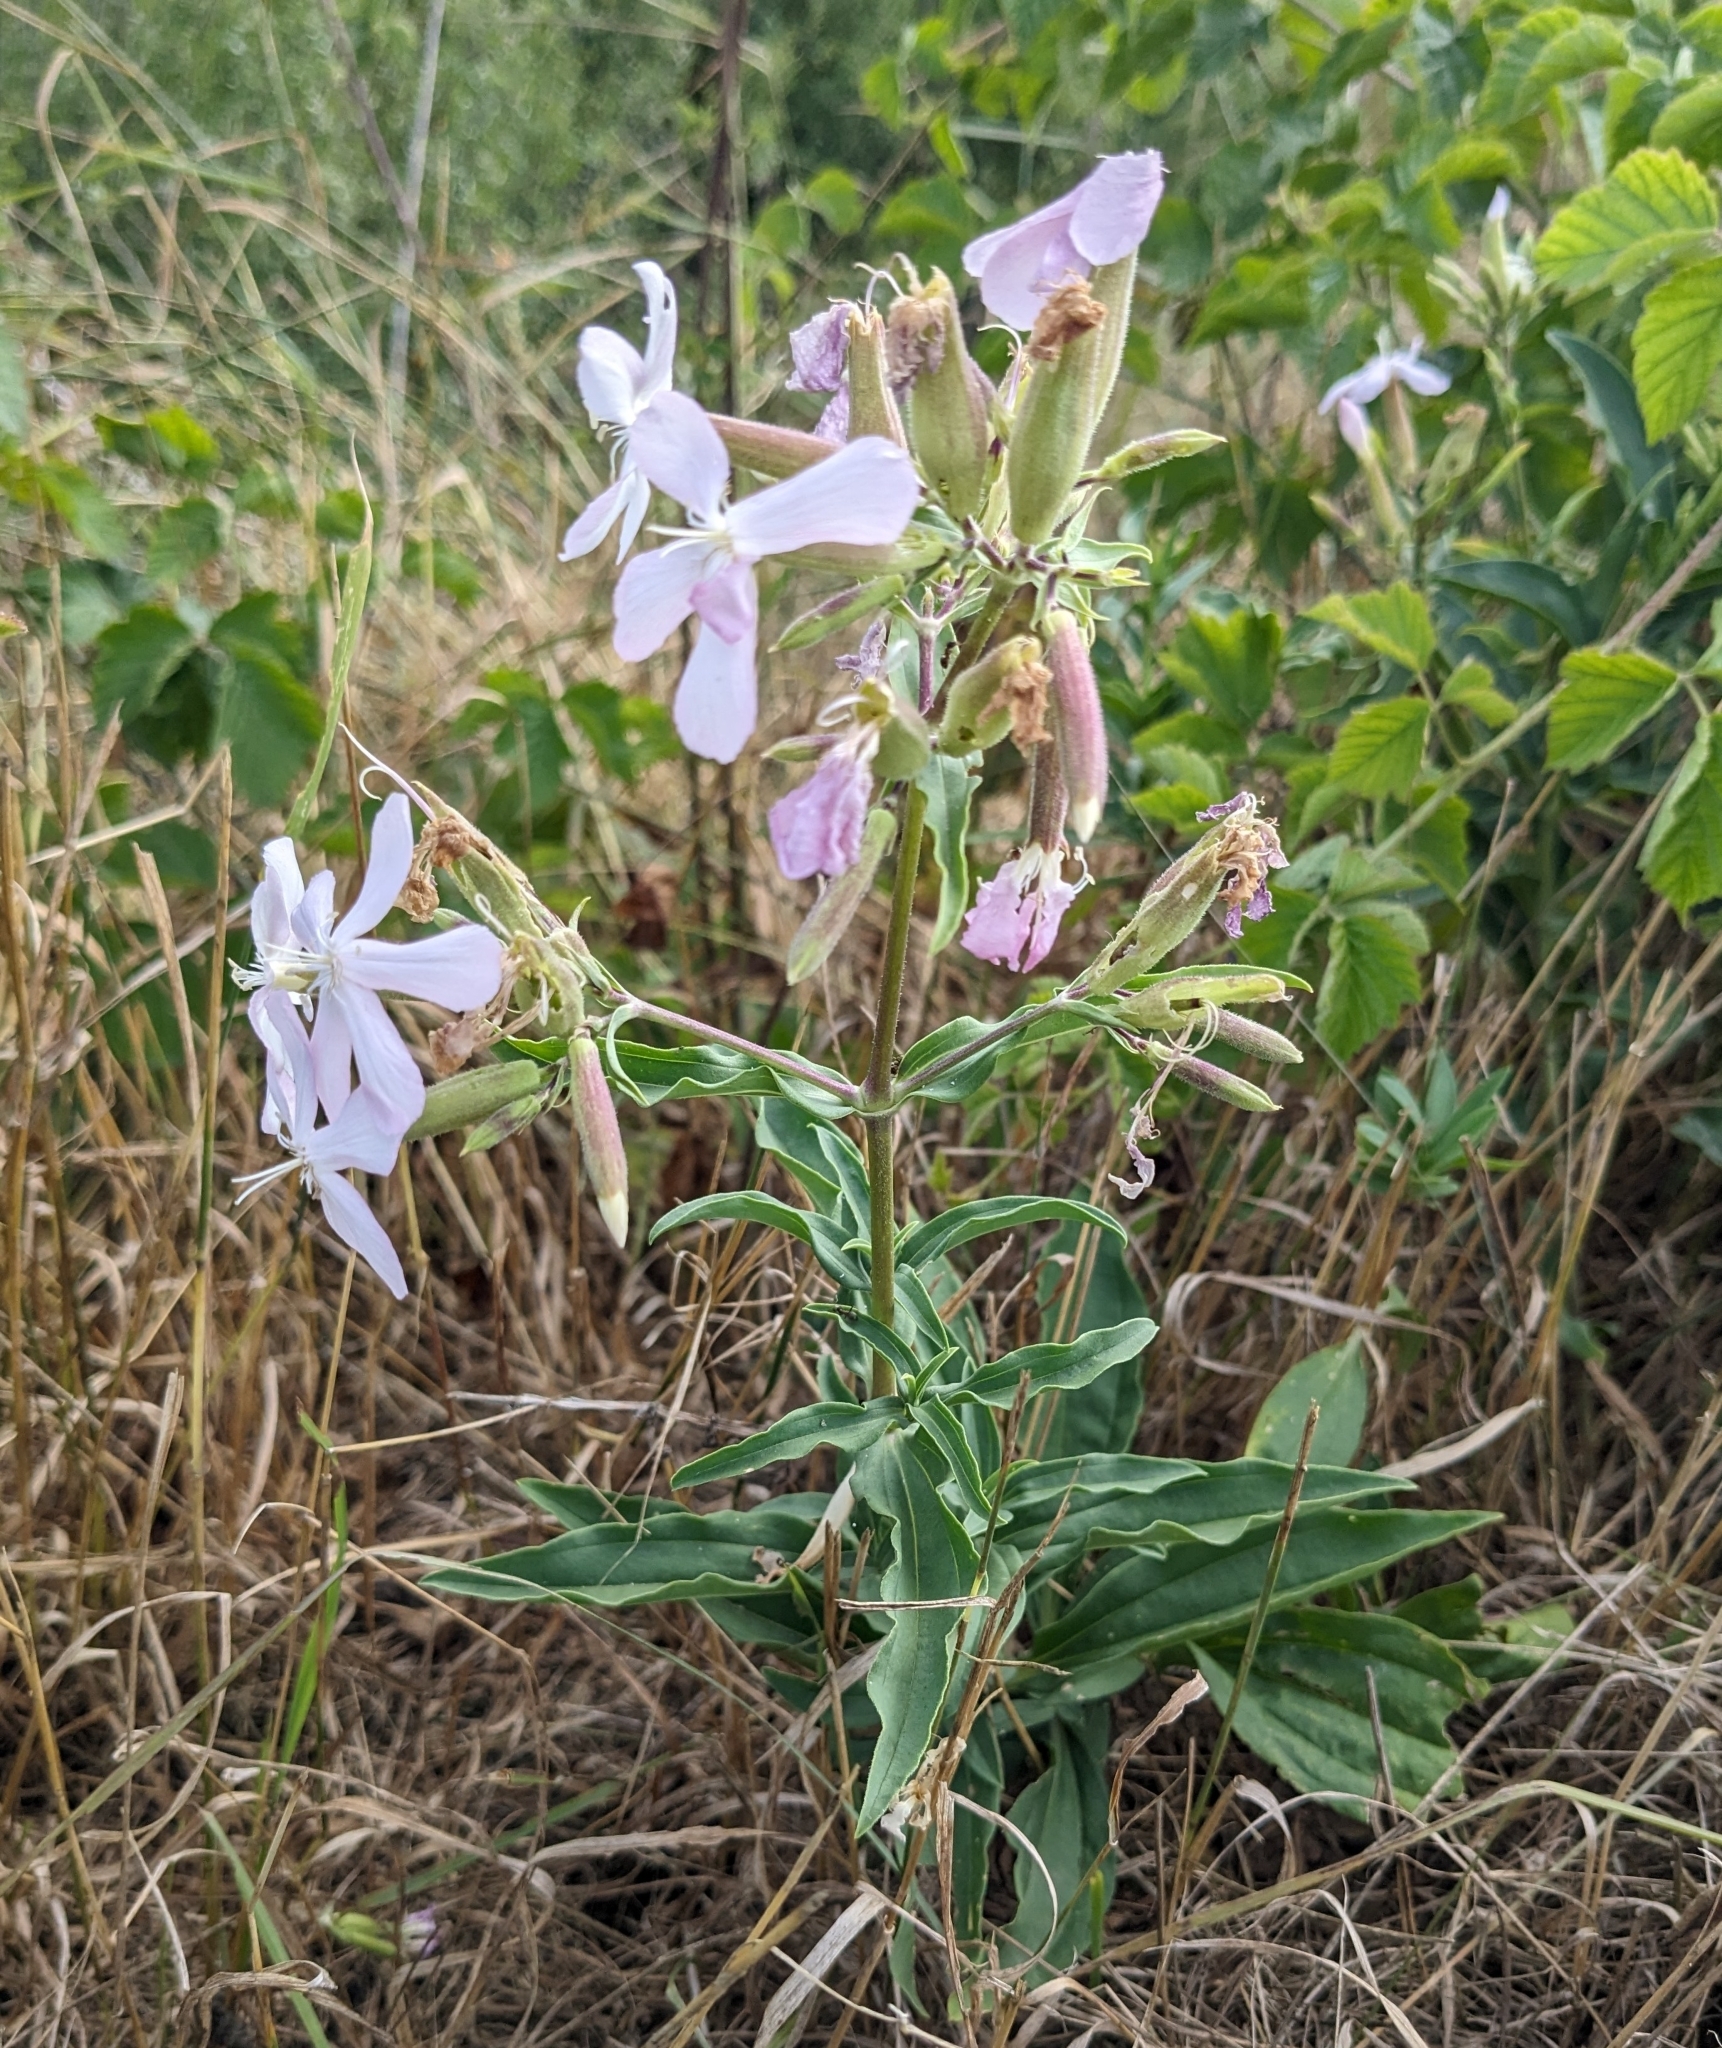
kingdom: Plantae
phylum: Tracheophyta
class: Magnoliopsida
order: Caryophyllales
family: Caryophyllaceae
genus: Saponaria
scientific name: Saponaria officinalis
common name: Soapwort
